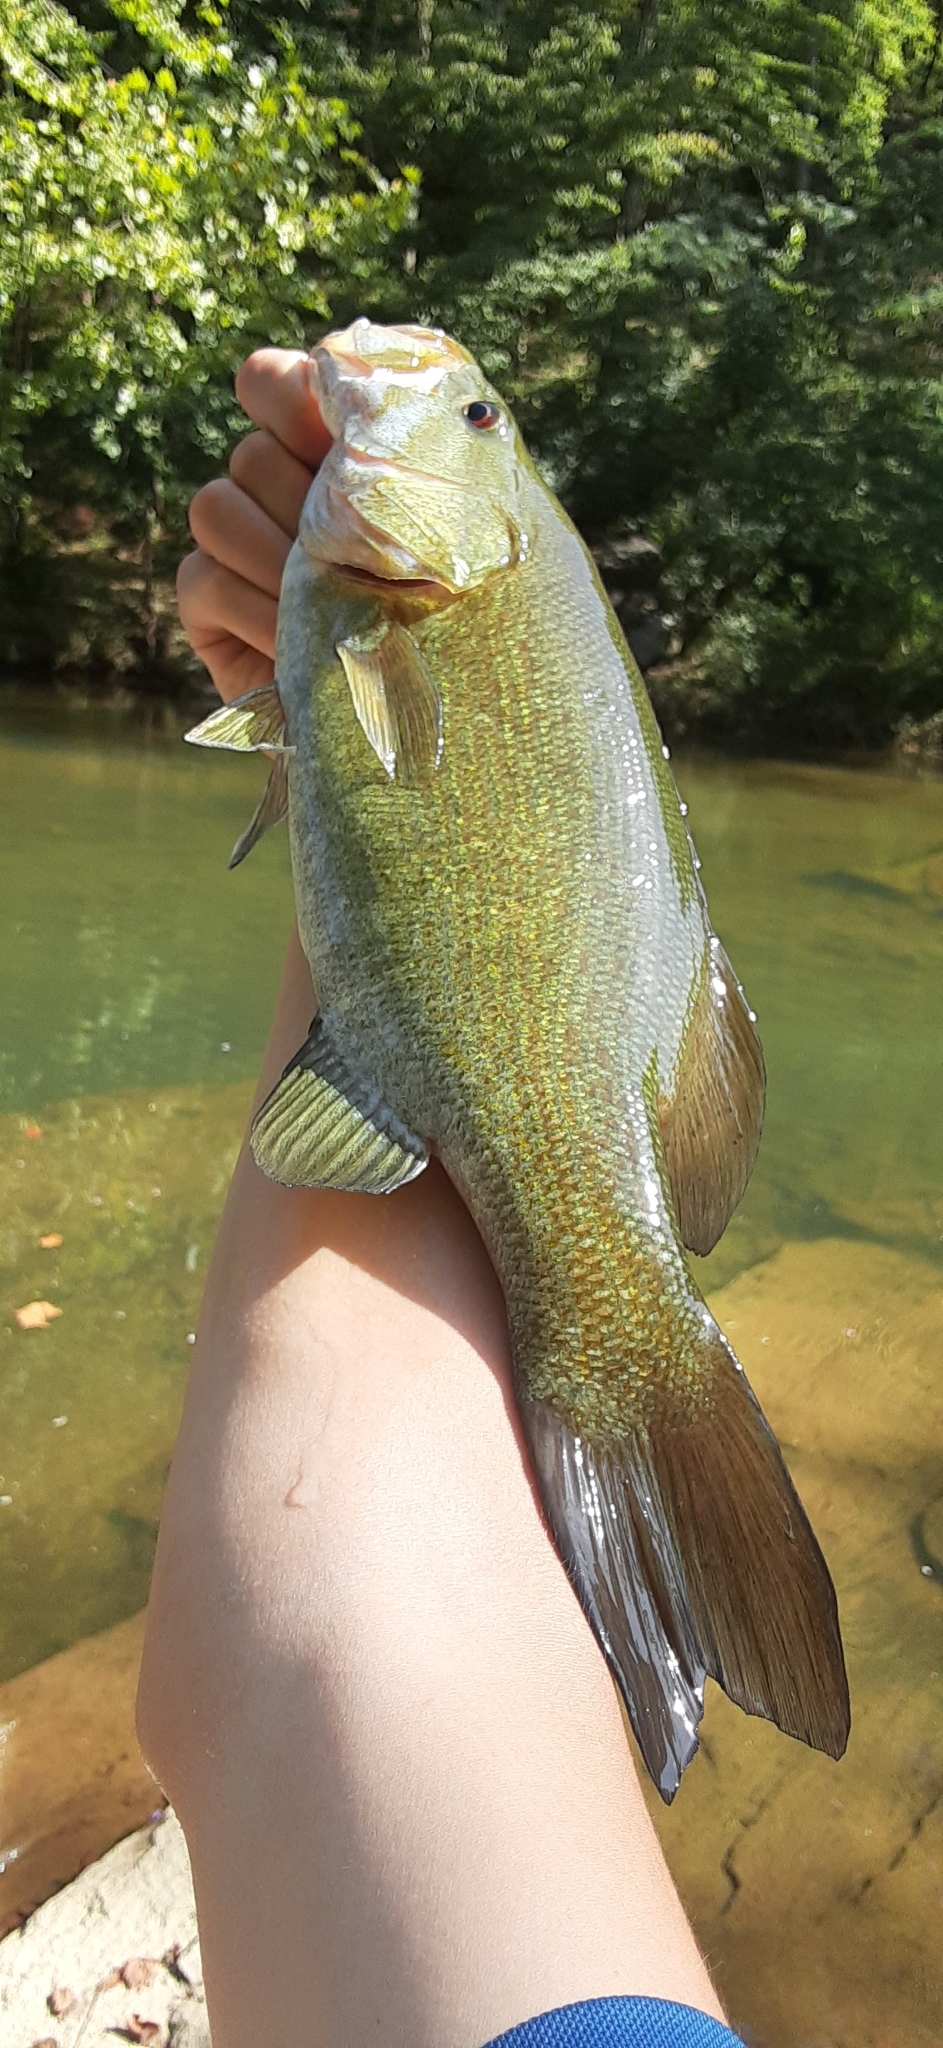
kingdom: Animalia
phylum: Chordata
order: Perciformes
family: Centrarchidae
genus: Micropterus
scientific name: Micropterus dolomieu
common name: Smallmouth bass
